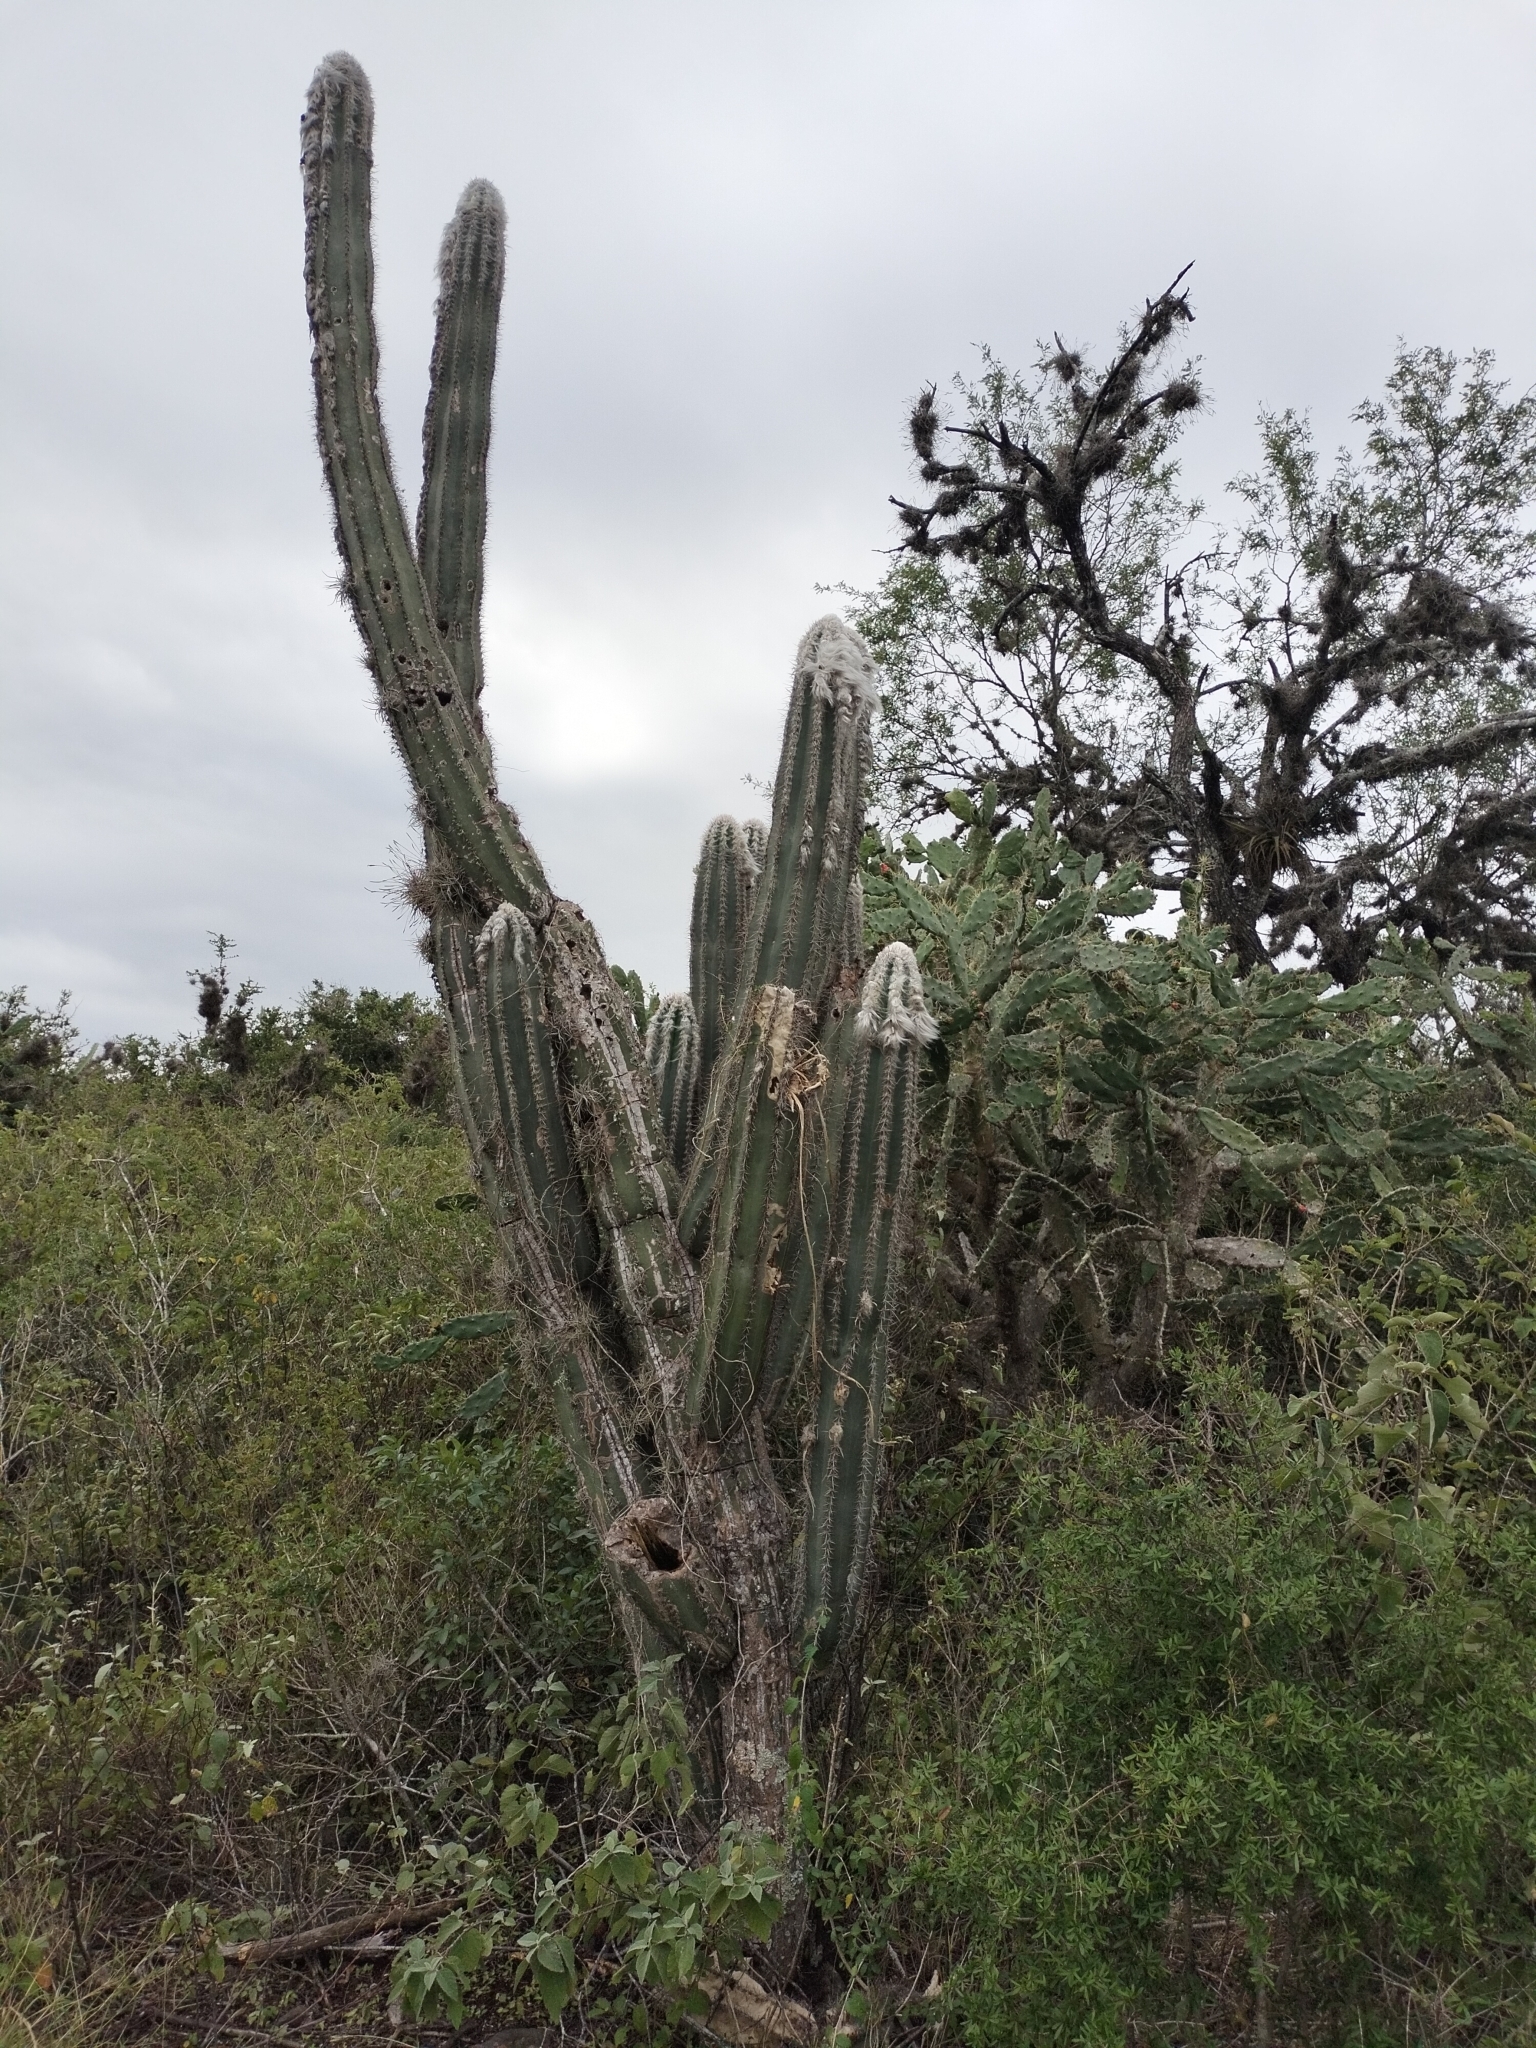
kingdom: Plantae
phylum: Tracheophyta
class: Magnoliopsida
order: Caryophyllales
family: Cactaceae
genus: Pilosocereus
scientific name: Pilosocereus leucocephalus
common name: Old man cactus
